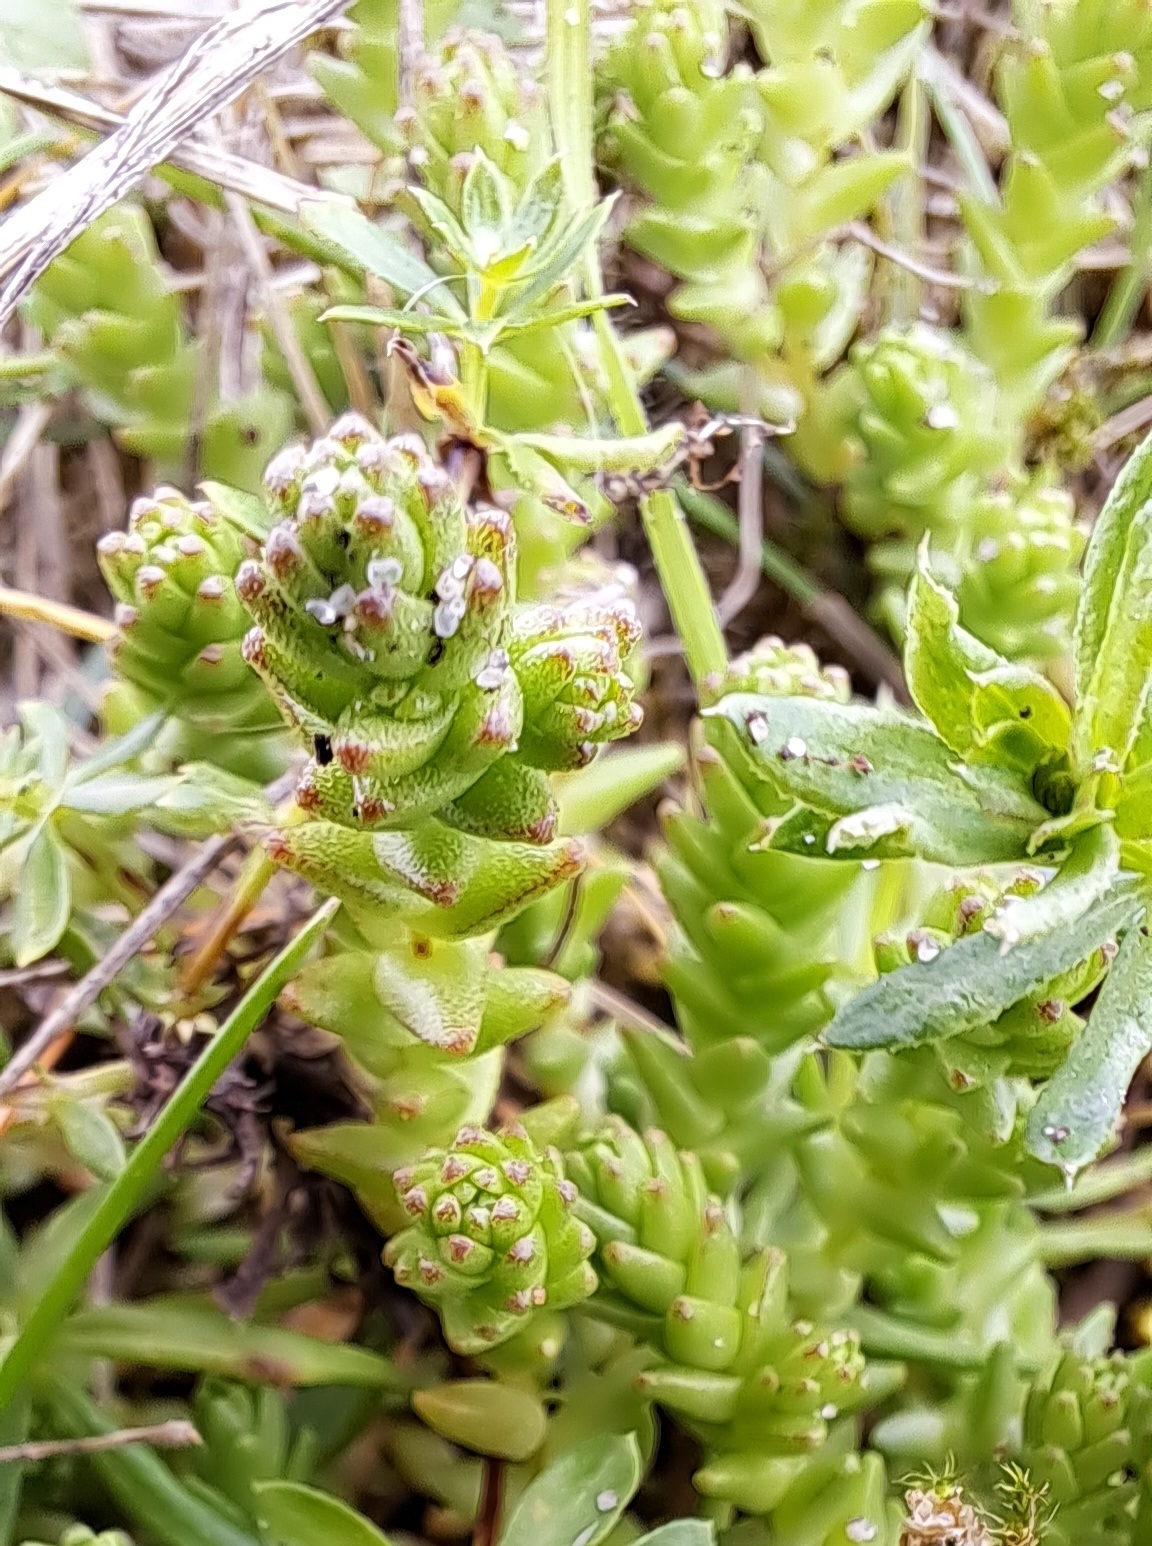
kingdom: Plantae
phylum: Tracheophyta
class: Magnoliopsida
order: Saxifragales
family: Crassulaceae
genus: Sedum
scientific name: Sedum acre
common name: Biting stonecrop
